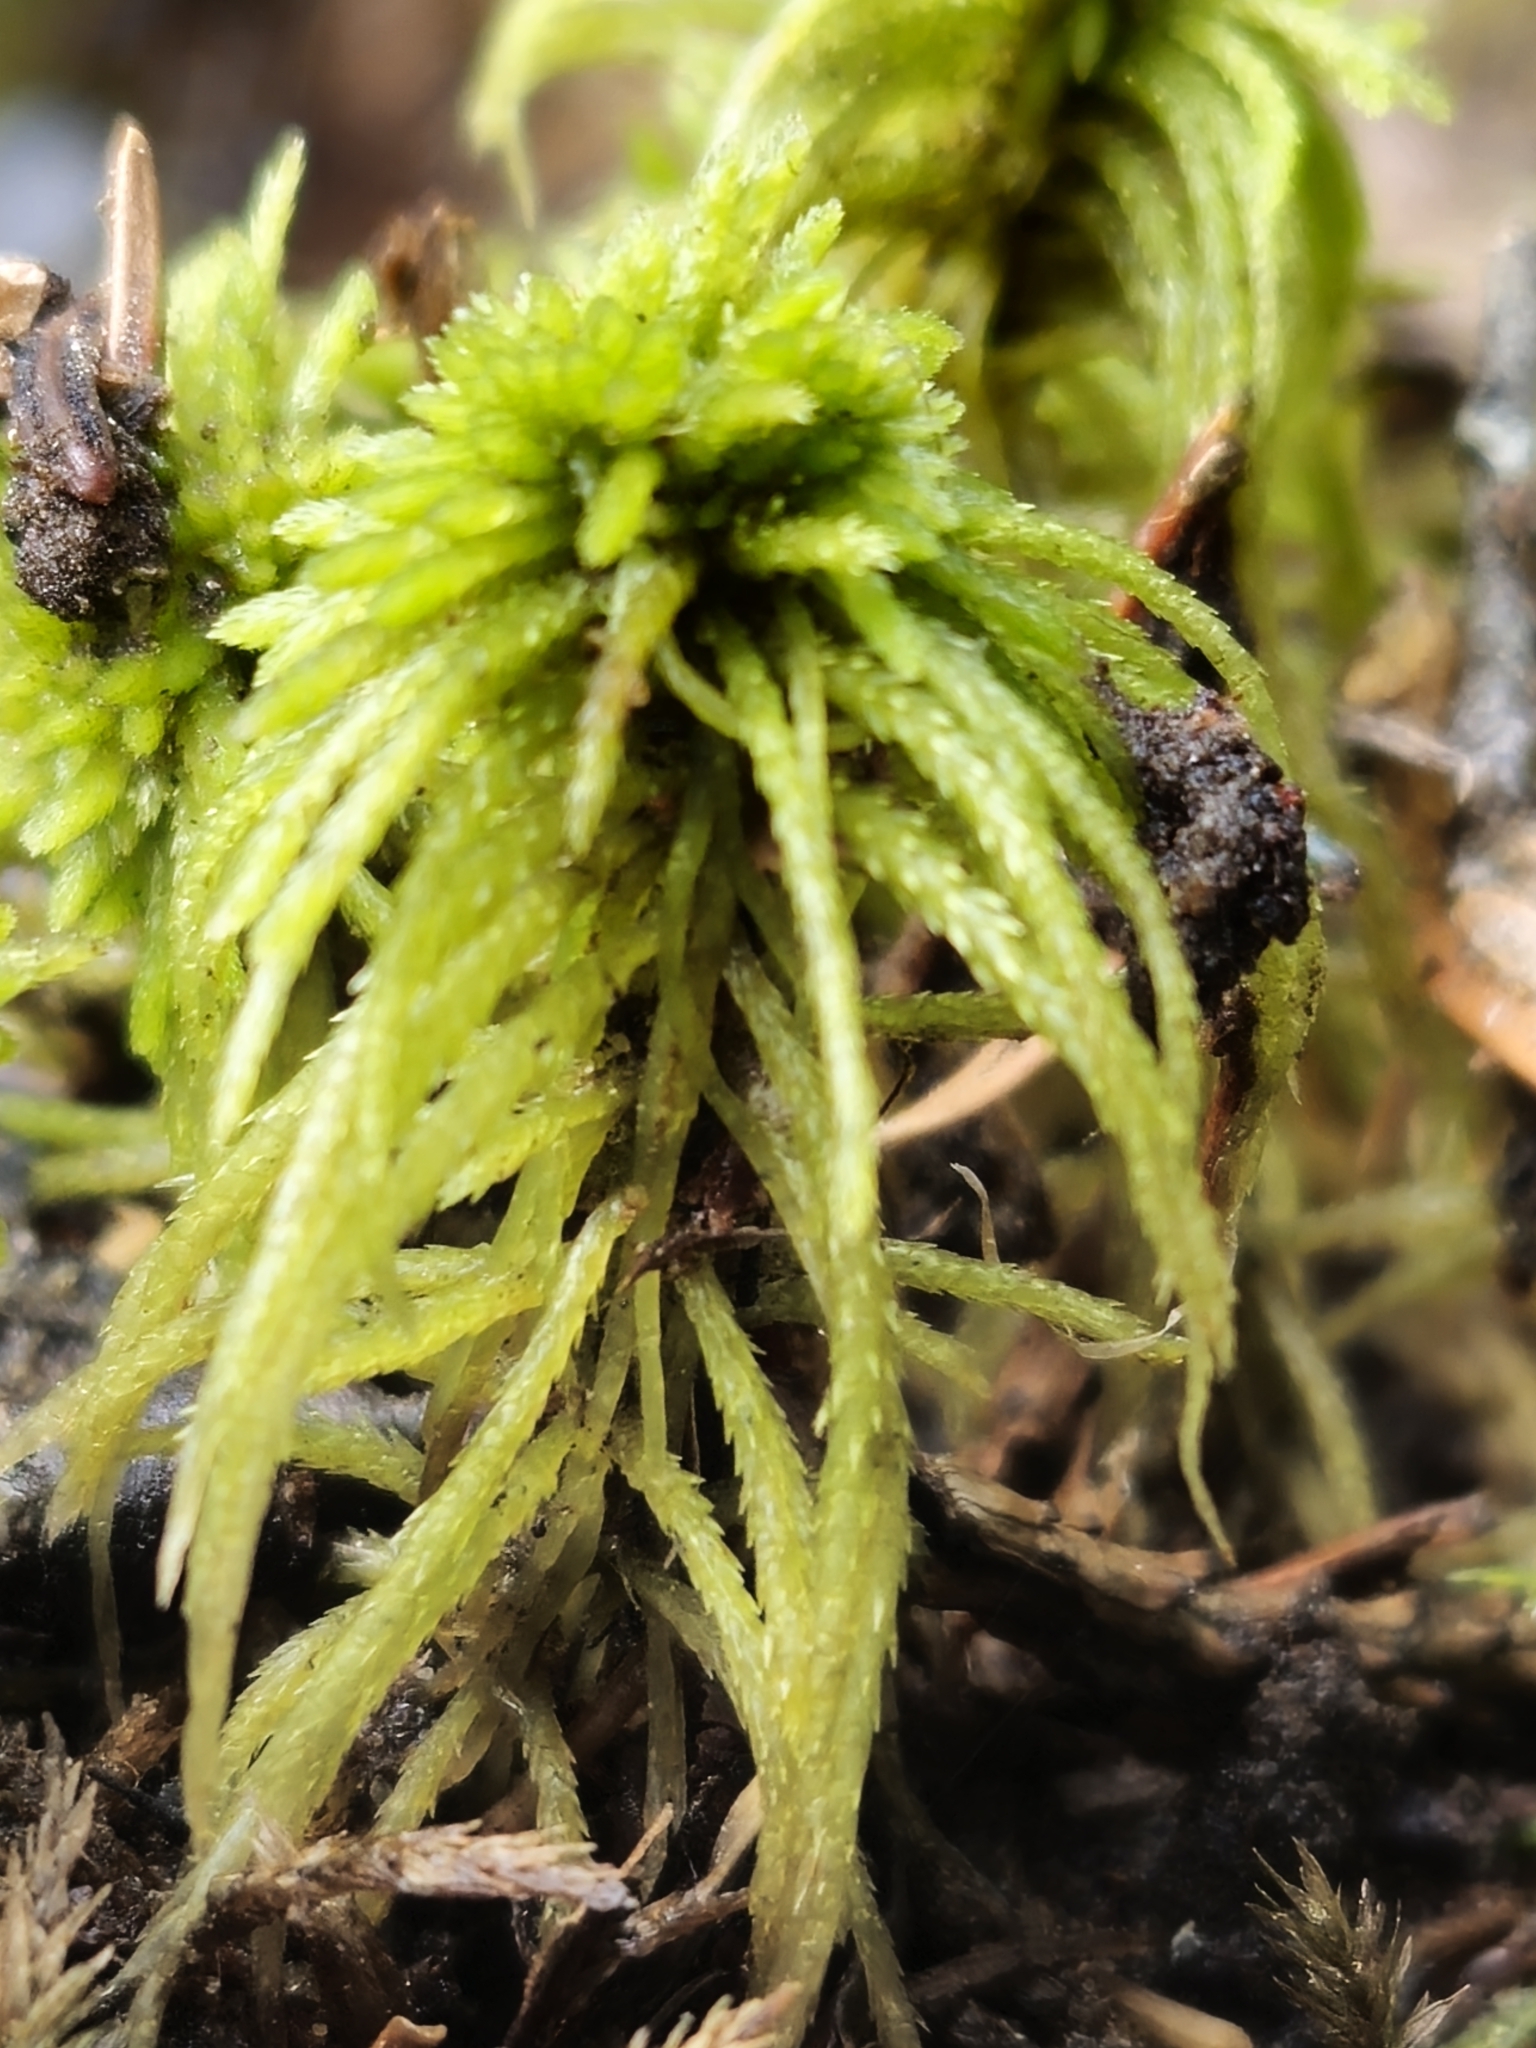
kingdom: Plantae
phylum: Bryophyta
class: Sphagnopsida
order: Sphagnales
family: Sphagnaceae
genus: Sphagnum
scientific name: Sphagnum girgensohnii
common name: Girgensohn's peat moss
